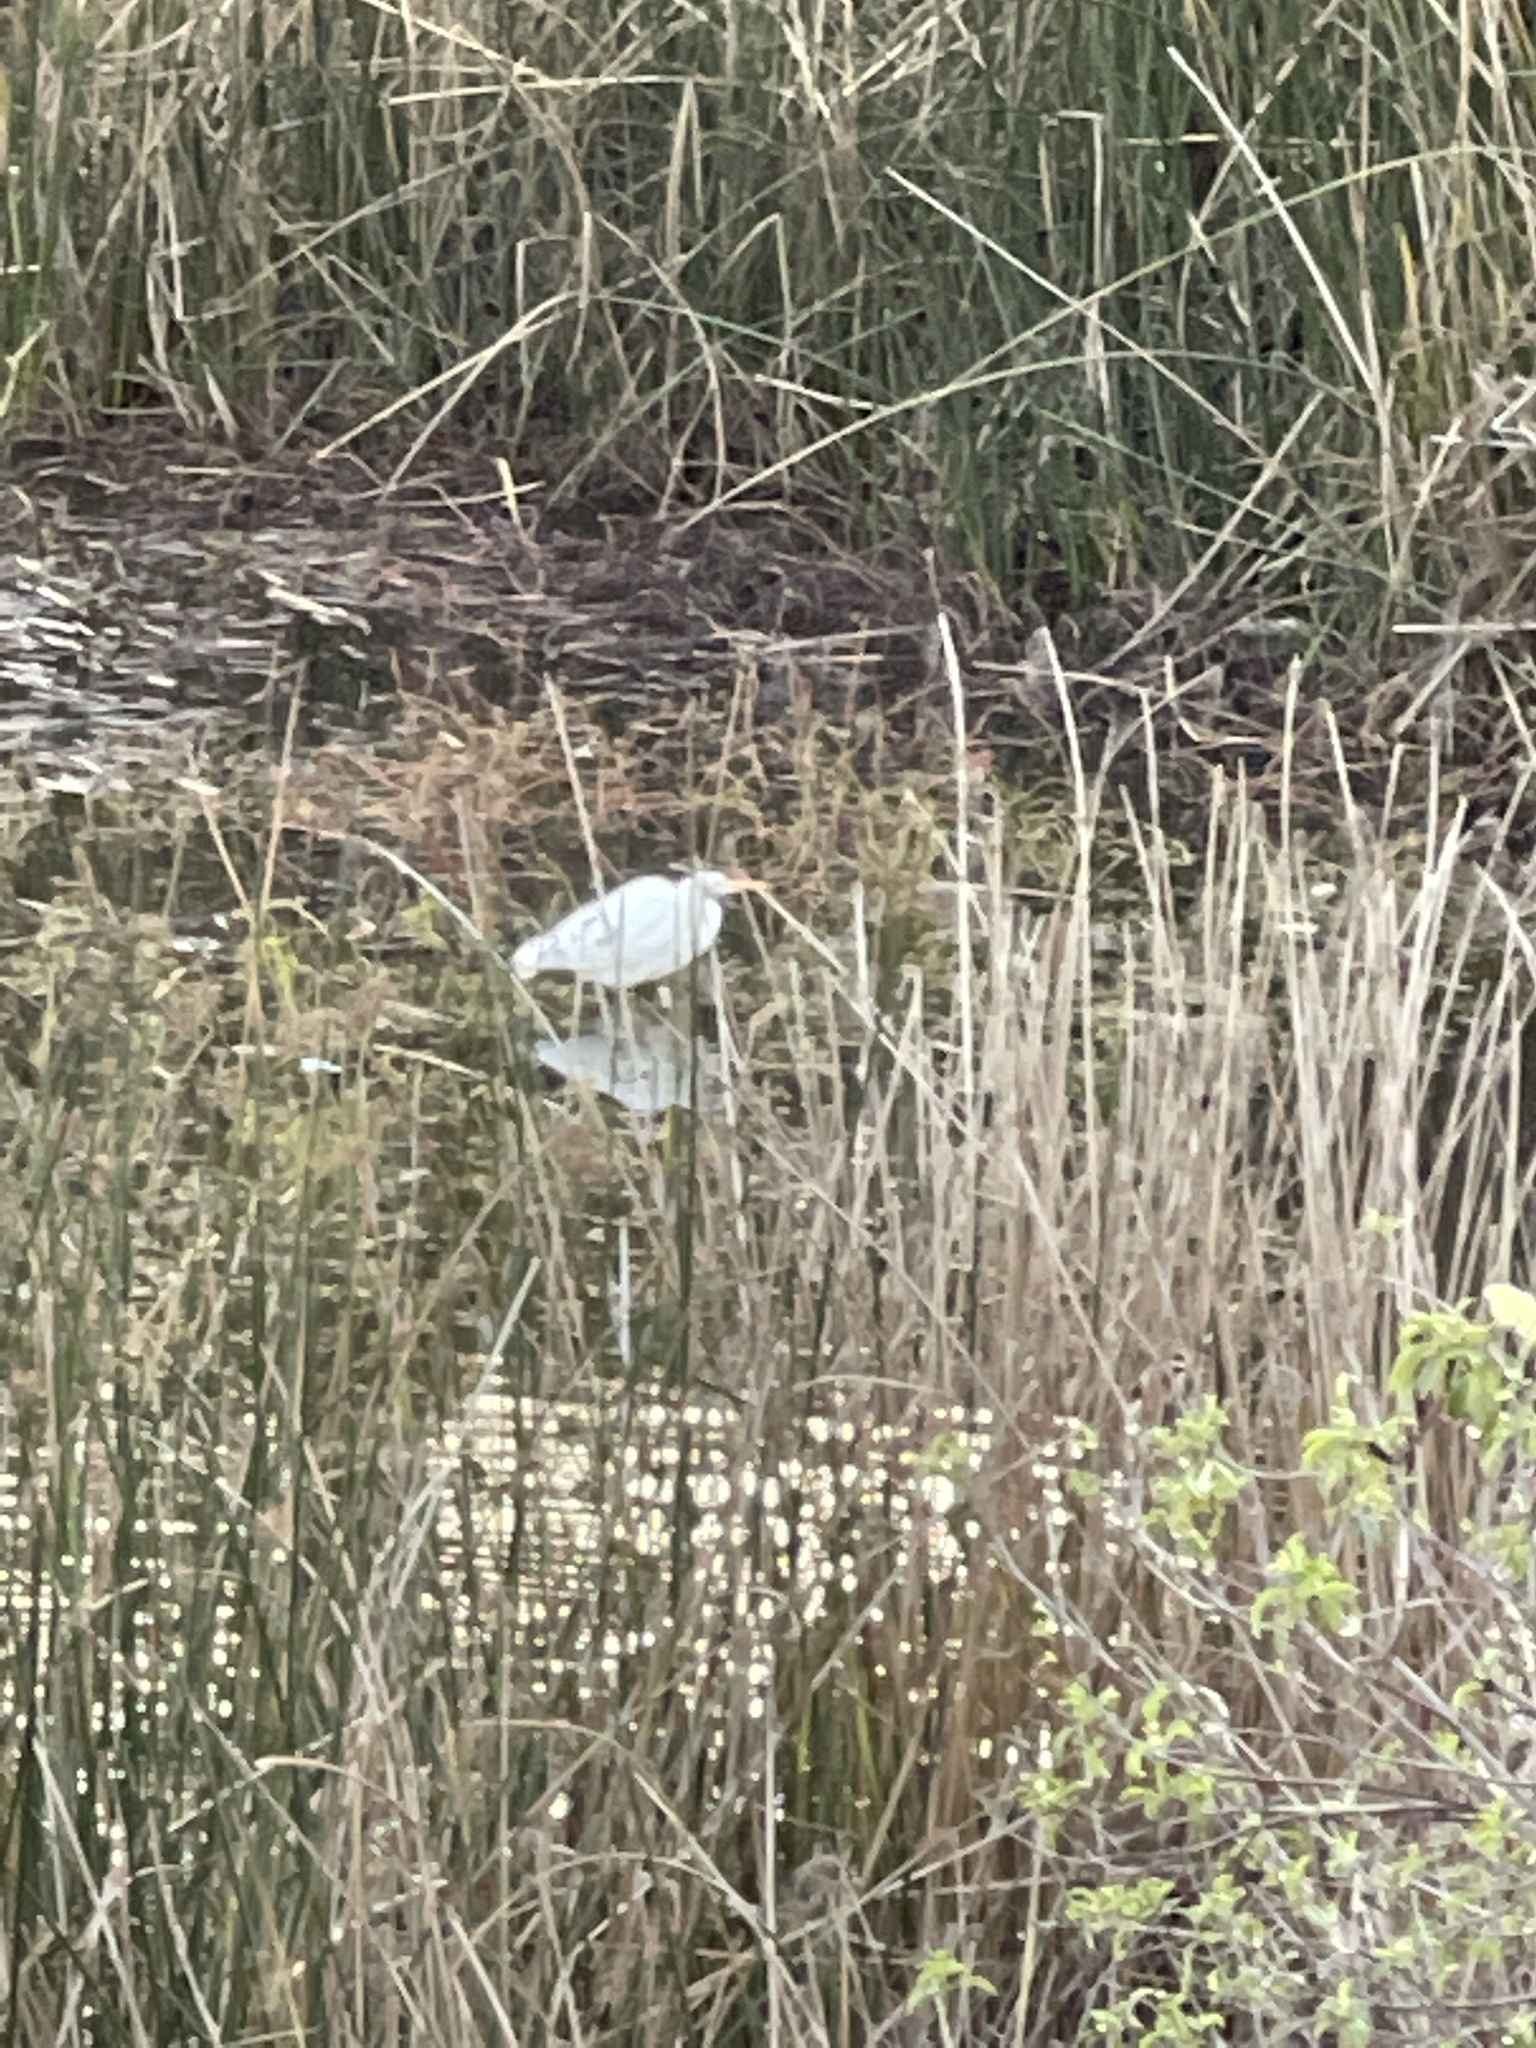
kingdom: Animalia
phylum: Chordata
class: Aves
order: Pelecaniformes
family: Ardeidae
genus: Ardea
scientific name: Ardea alba
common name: Great egret
